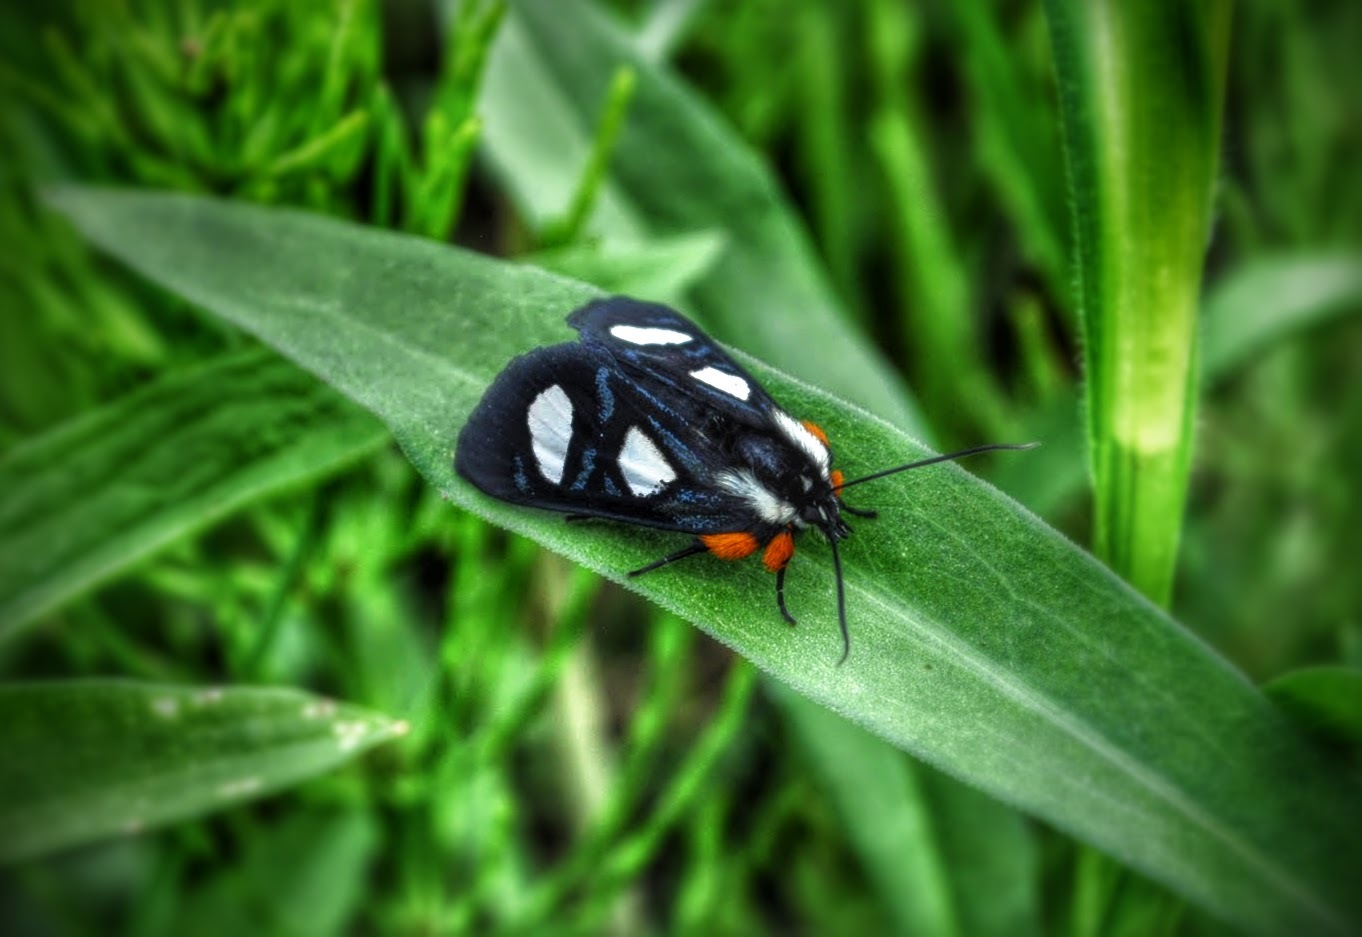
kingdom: Animalia
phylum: Arthropoda
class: Insecta
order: Lepidoptera
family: Noctuidae
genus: Alypia
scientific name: Alypia octomaculata
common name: Eight-spotted forester
